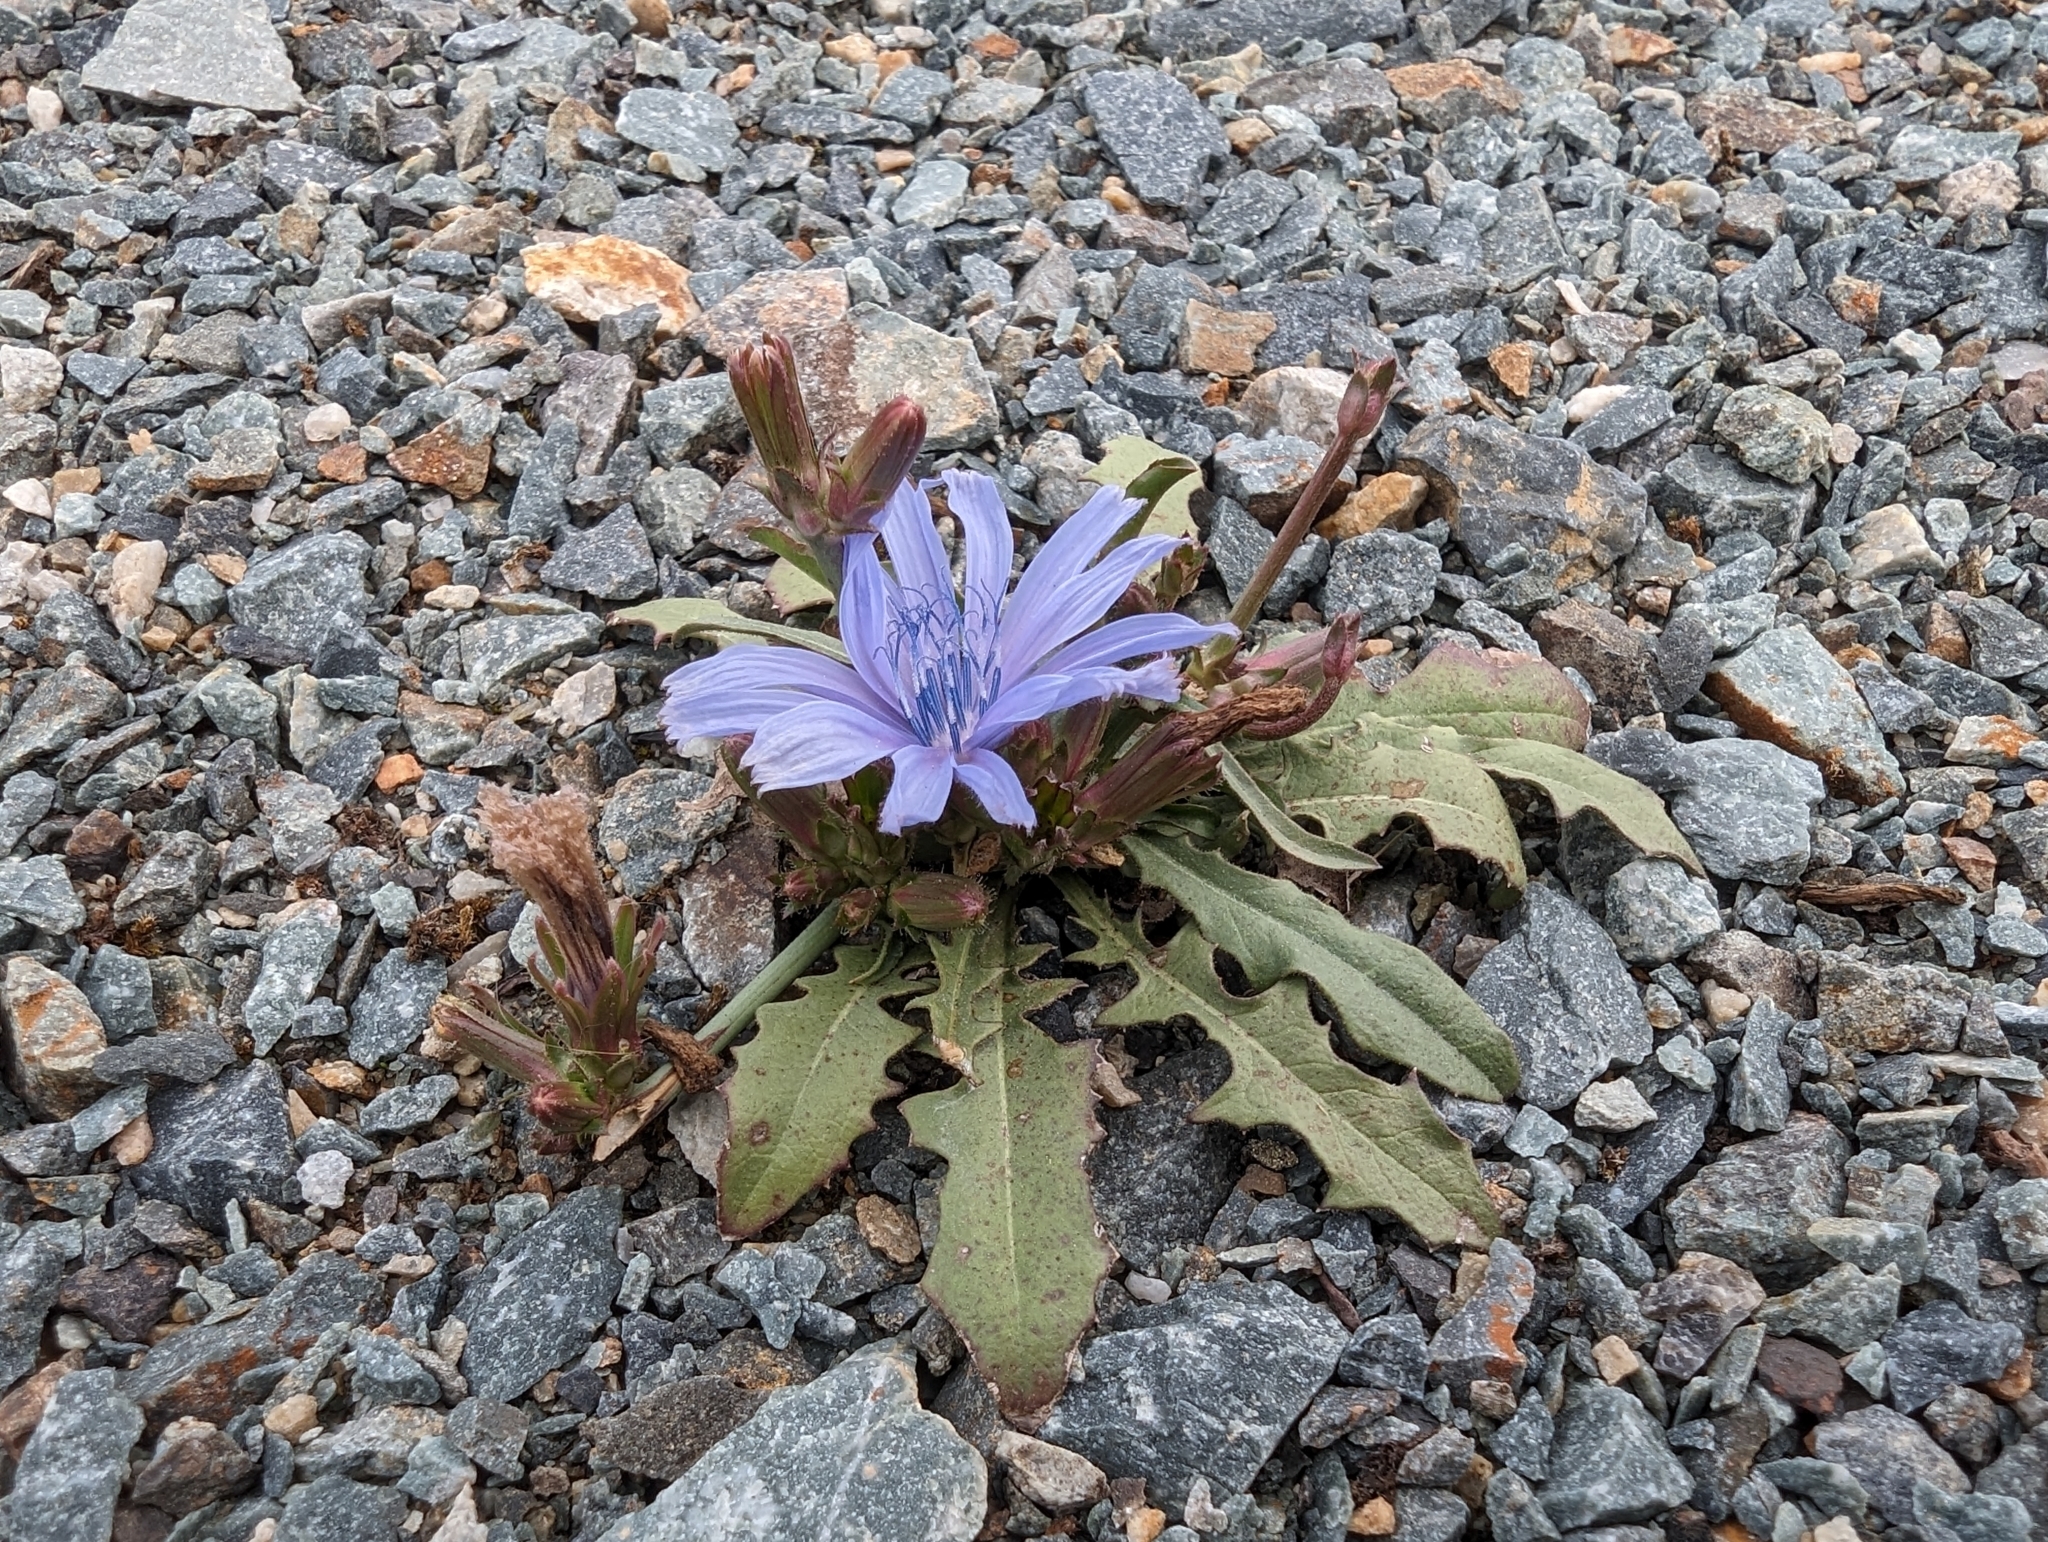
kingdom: Plantae
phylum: Tracheophyta
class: Magnoliopsida
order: Asterales
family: Asteraceae
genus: Cichorium
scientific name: Cichorium intybus
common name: Chicory
